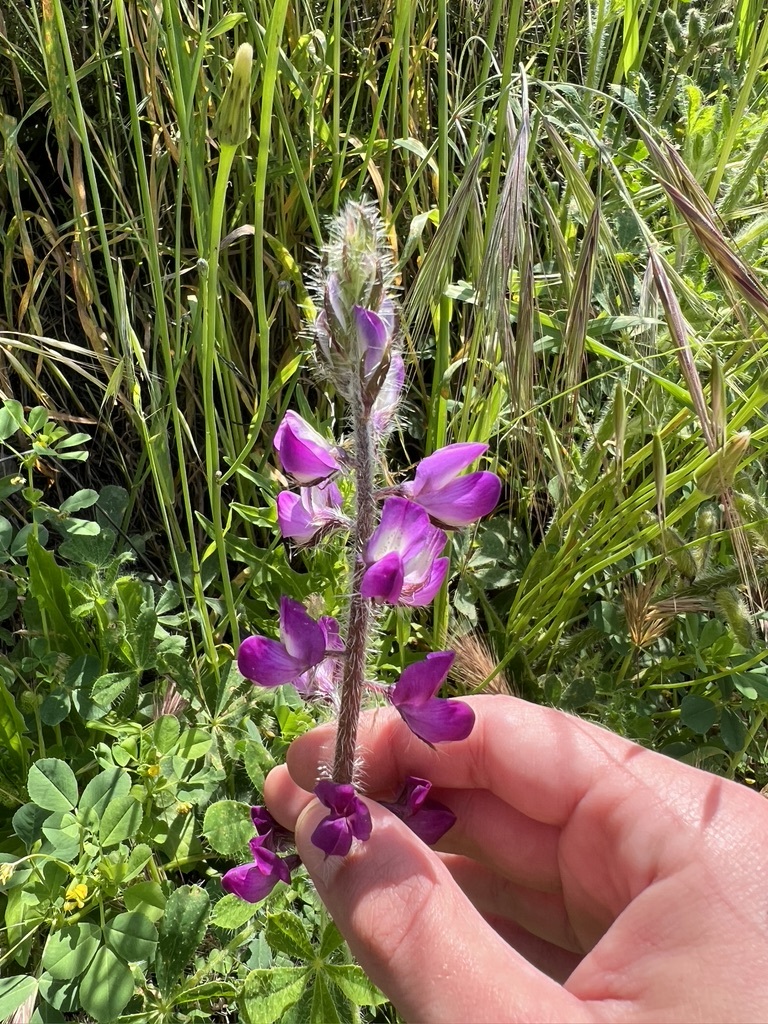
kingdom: Plantae
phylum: Tracheophyta
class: Magnoliopsida
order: Fabales
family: Fabaceae
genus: Lupinus
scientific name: Lupinus hirsutissimus
